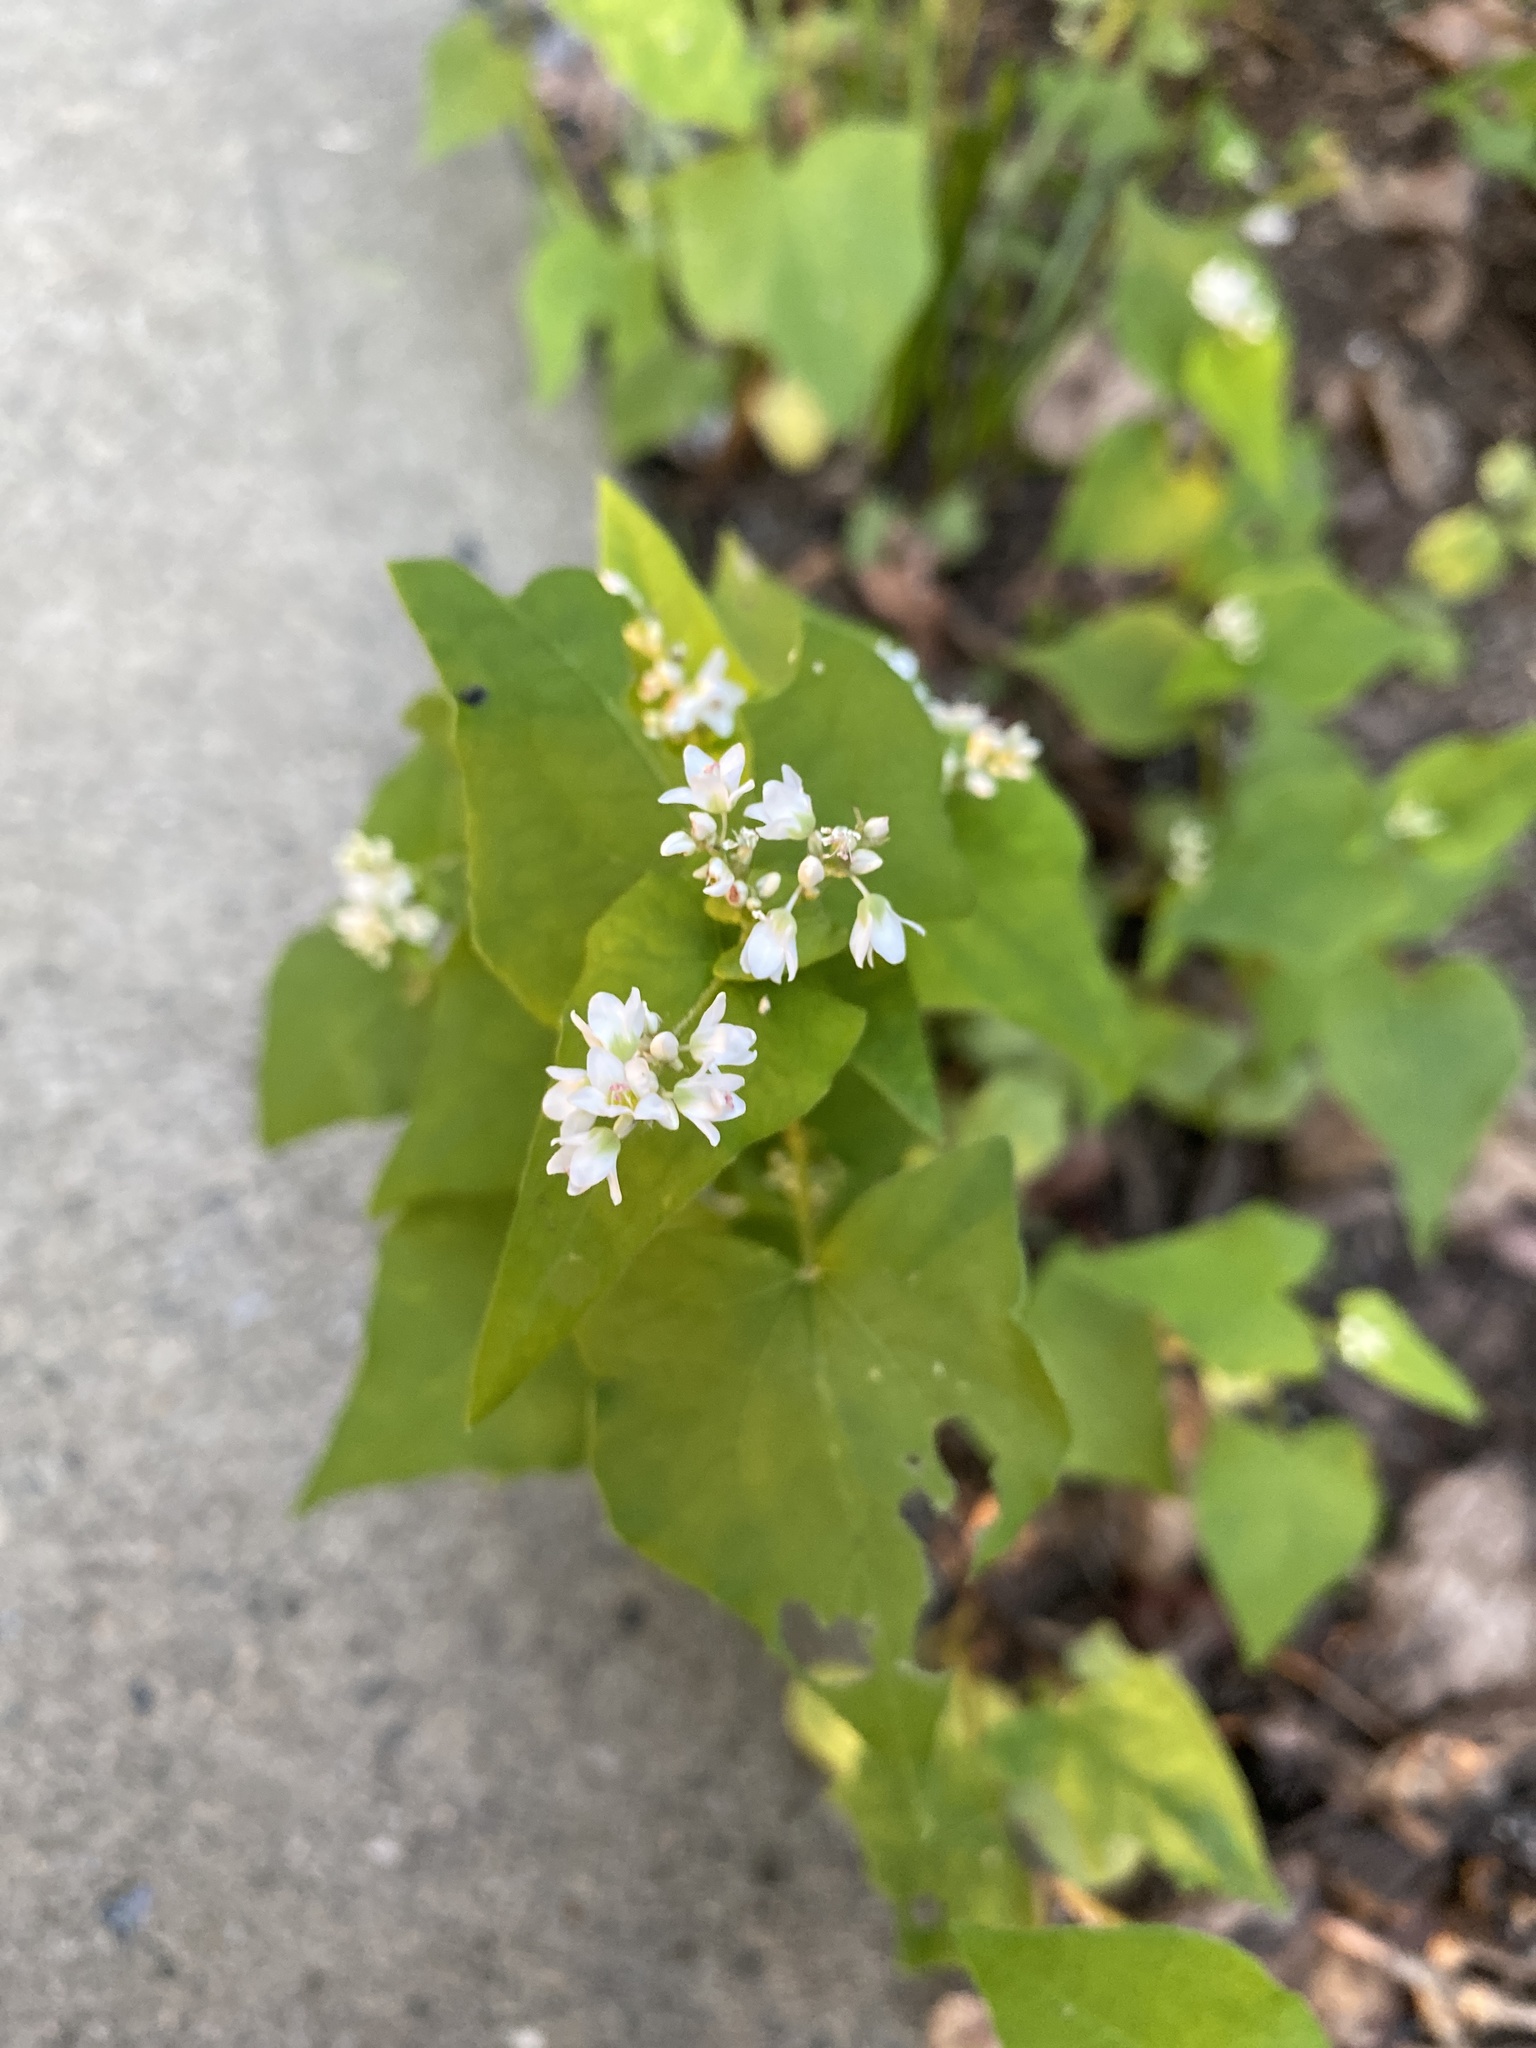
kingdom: Plantae
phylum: Tracheophyta
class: Magnoliopsida
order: Caryophyllales
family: Polygonaceae
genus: Fagopyrum
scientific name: Fagopyrum esculentum
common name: Buckwheat
